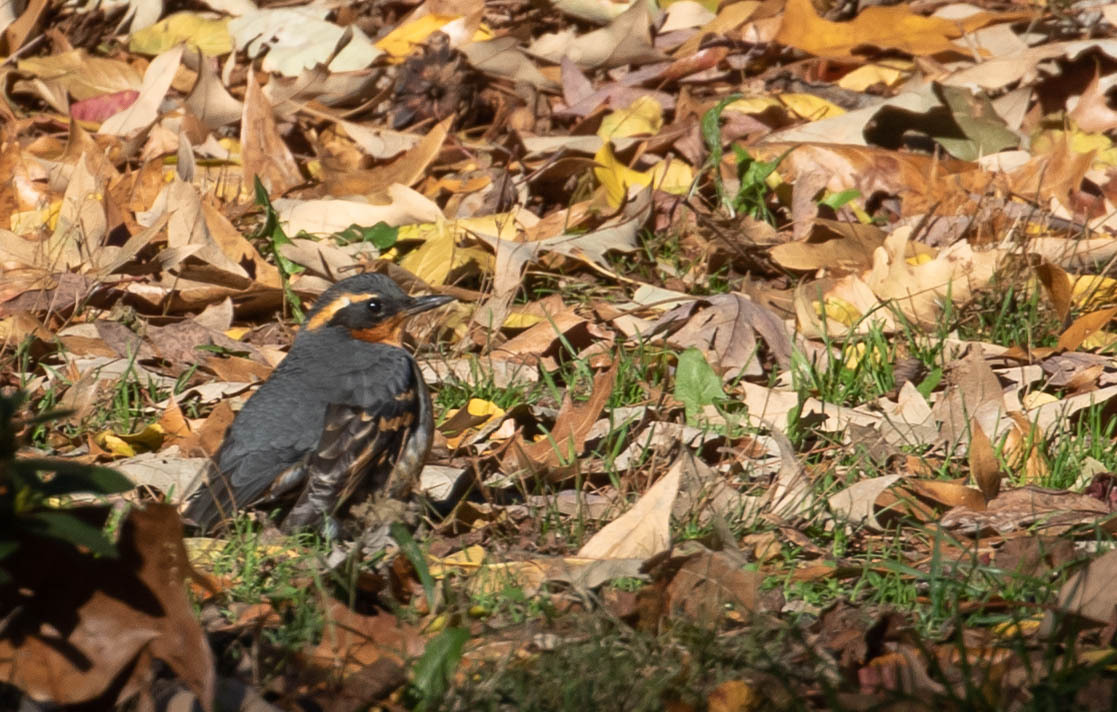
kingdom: Animalia
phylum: Chordata
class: Aves
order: Passeriformes
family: Turdidae
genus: Ixoreus
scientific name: Ixoreus naevius
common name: Varied thrush
